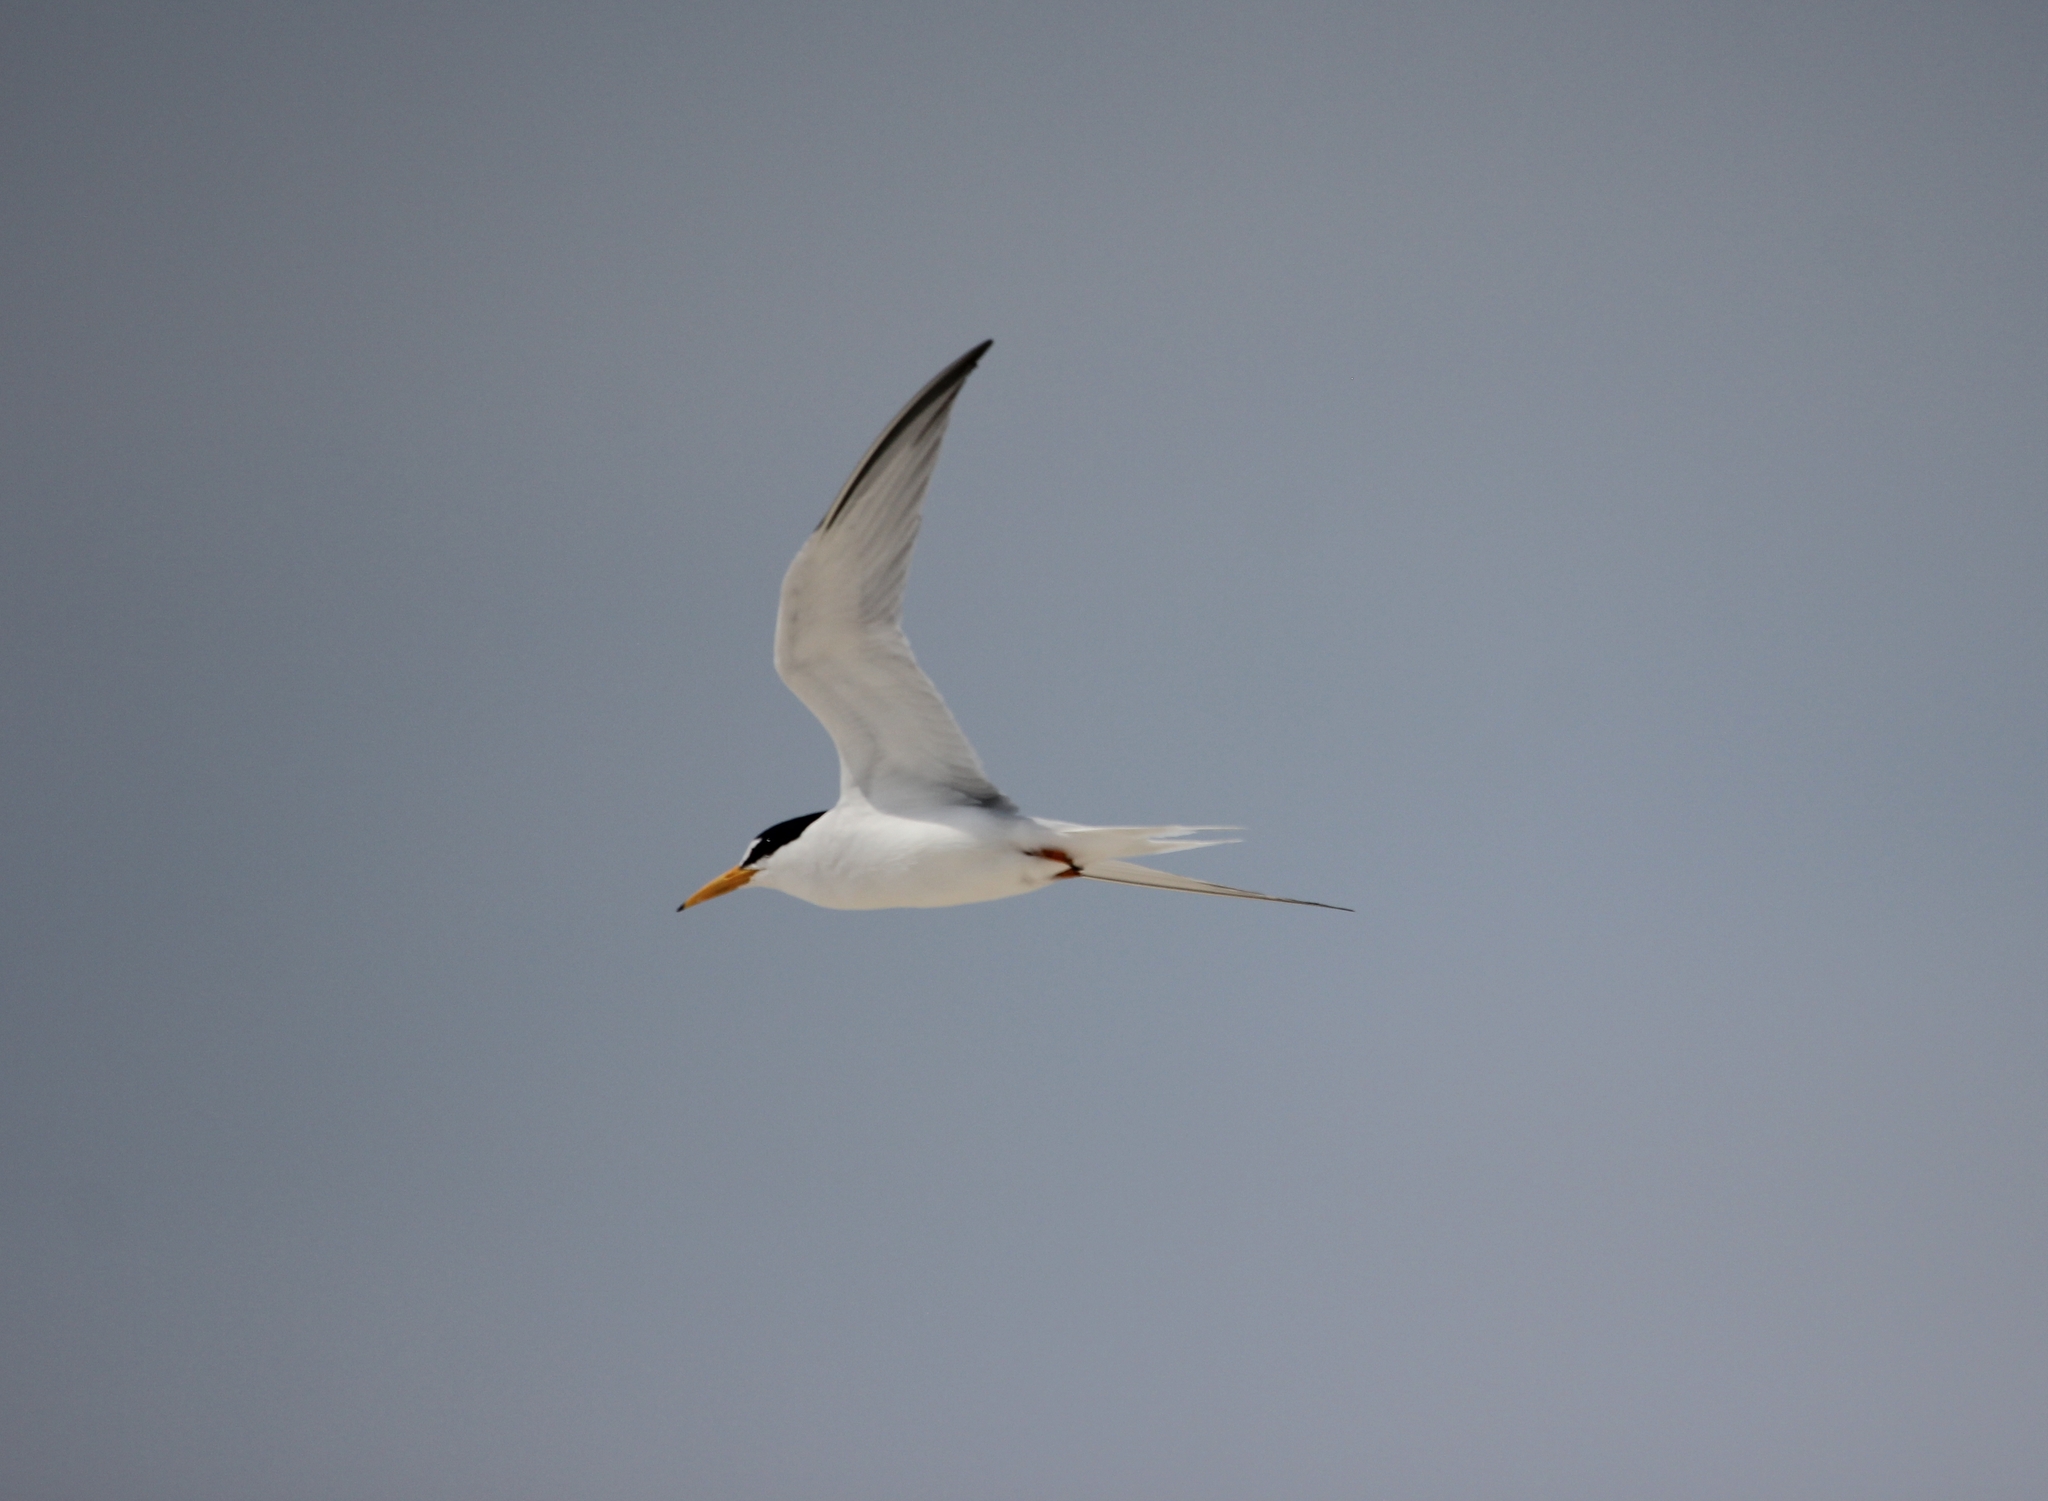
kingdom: Animalia
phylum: Chordata
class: Aves
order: Charadriiformes
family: Laridae
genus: Sternula
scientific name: Sternula antillarum
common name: Least tern
